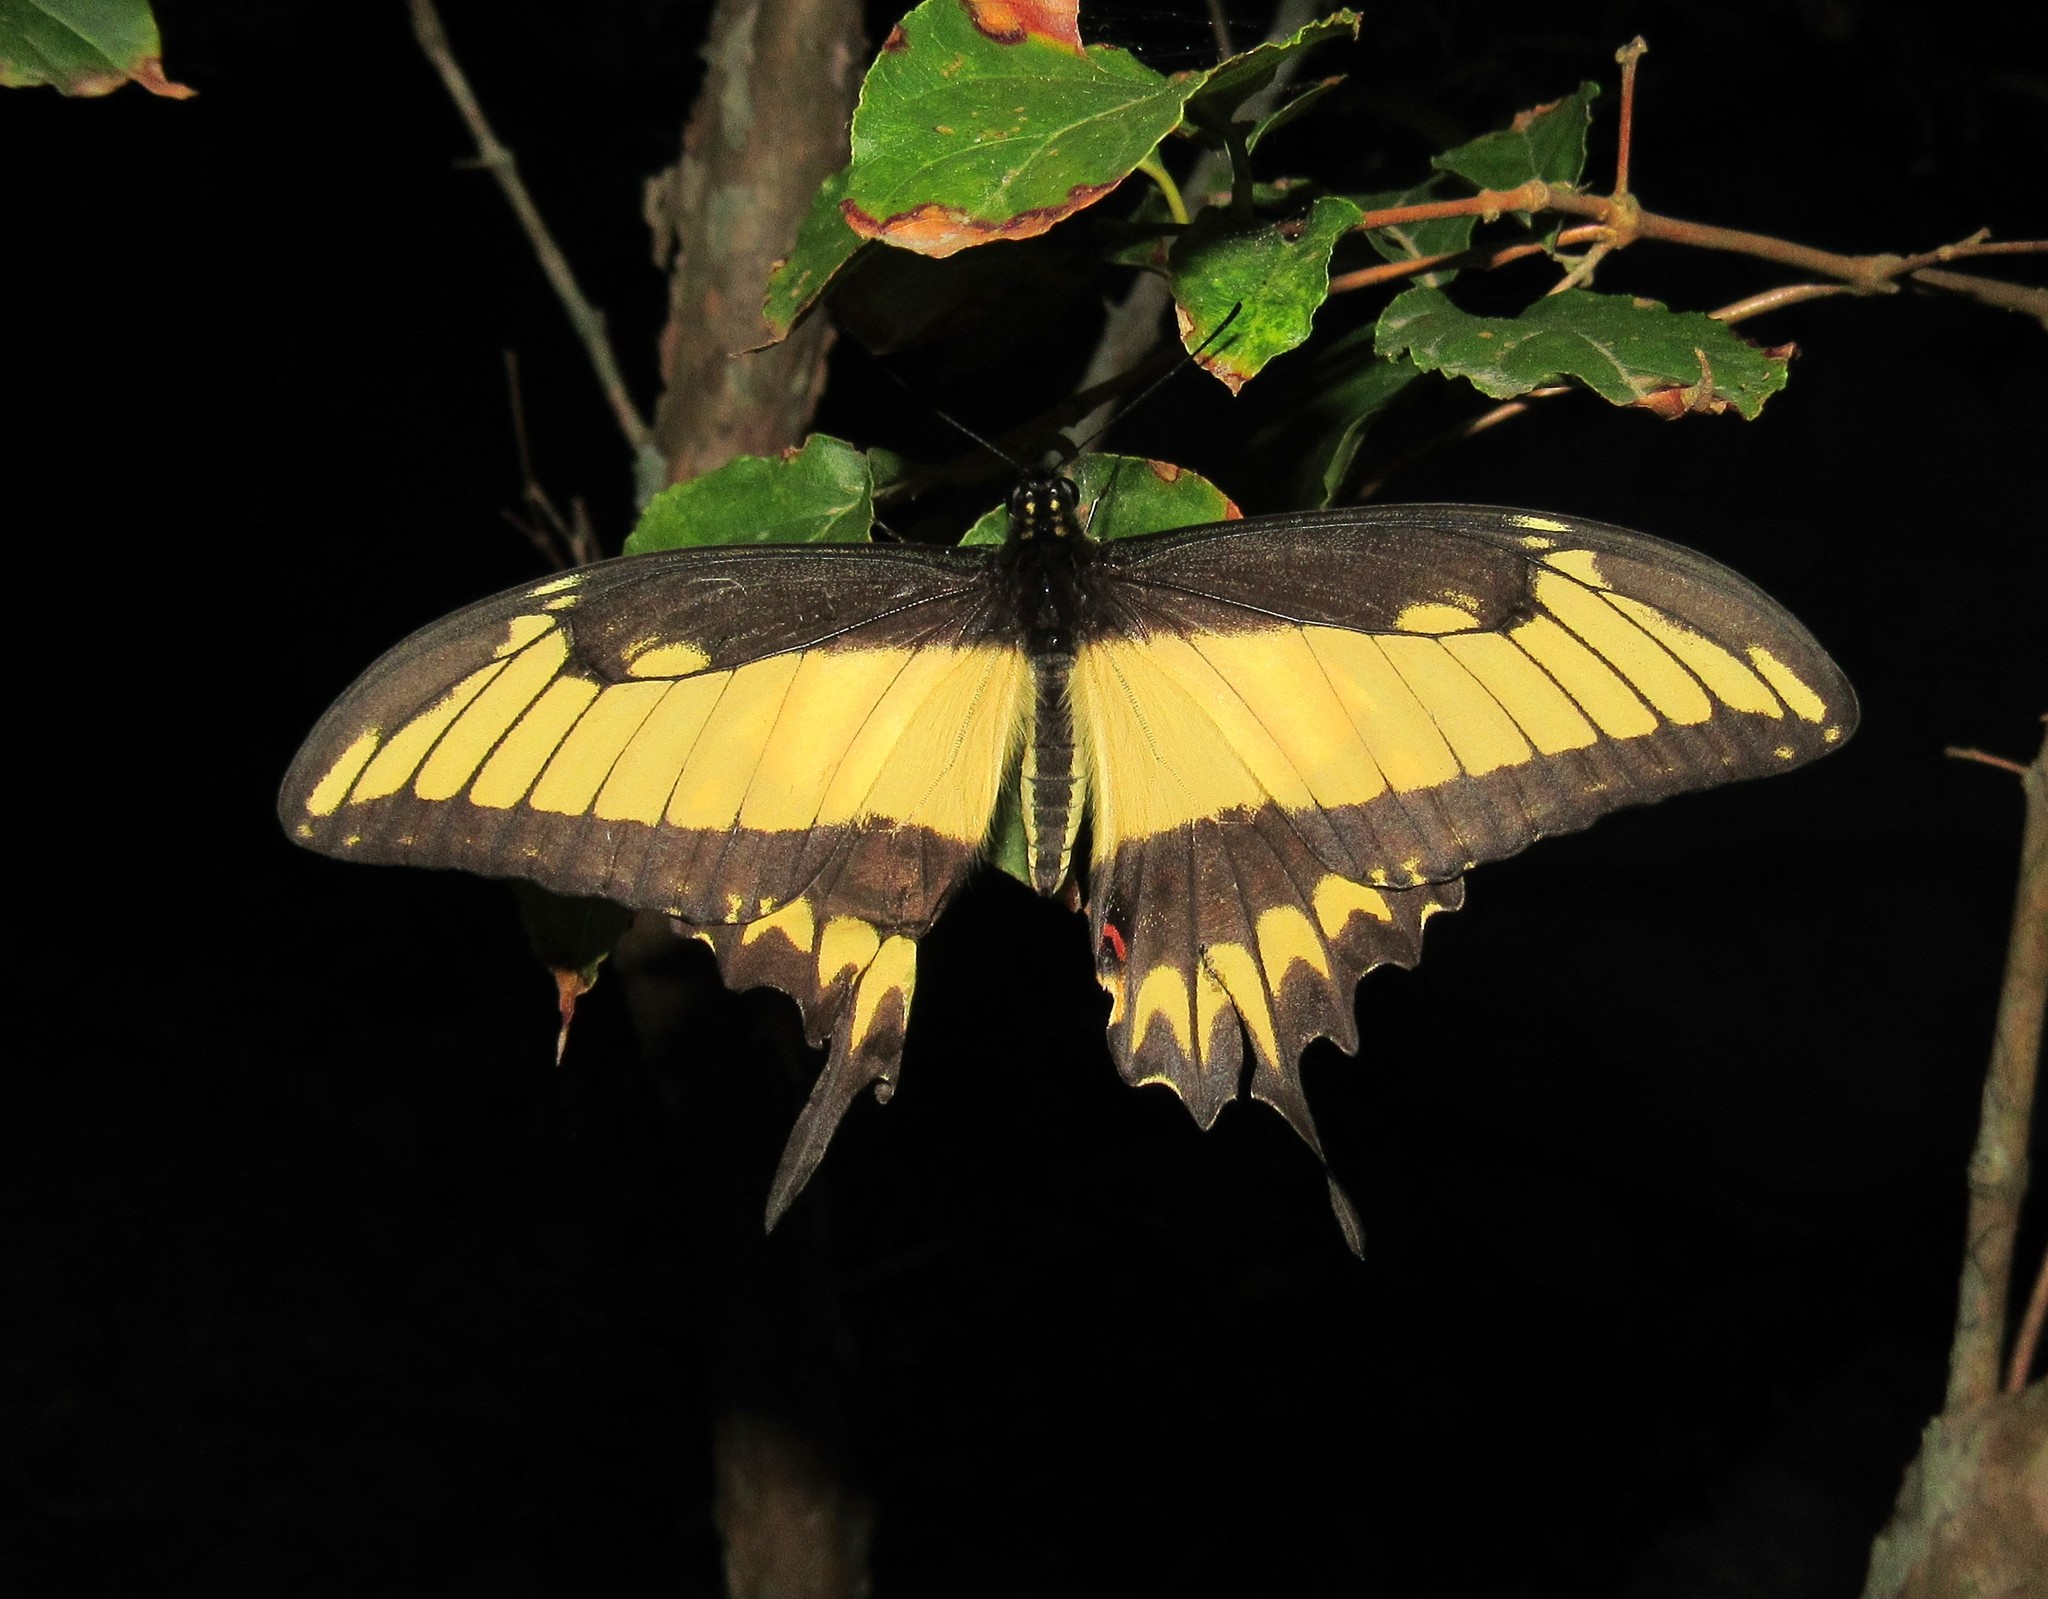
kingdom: Animalia
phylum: Arthropoda
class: Insecta
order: Lepidoptera
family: Papilionidae
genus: Papilio
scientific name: Papilio astyalus
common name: Astyalus swallowtail
